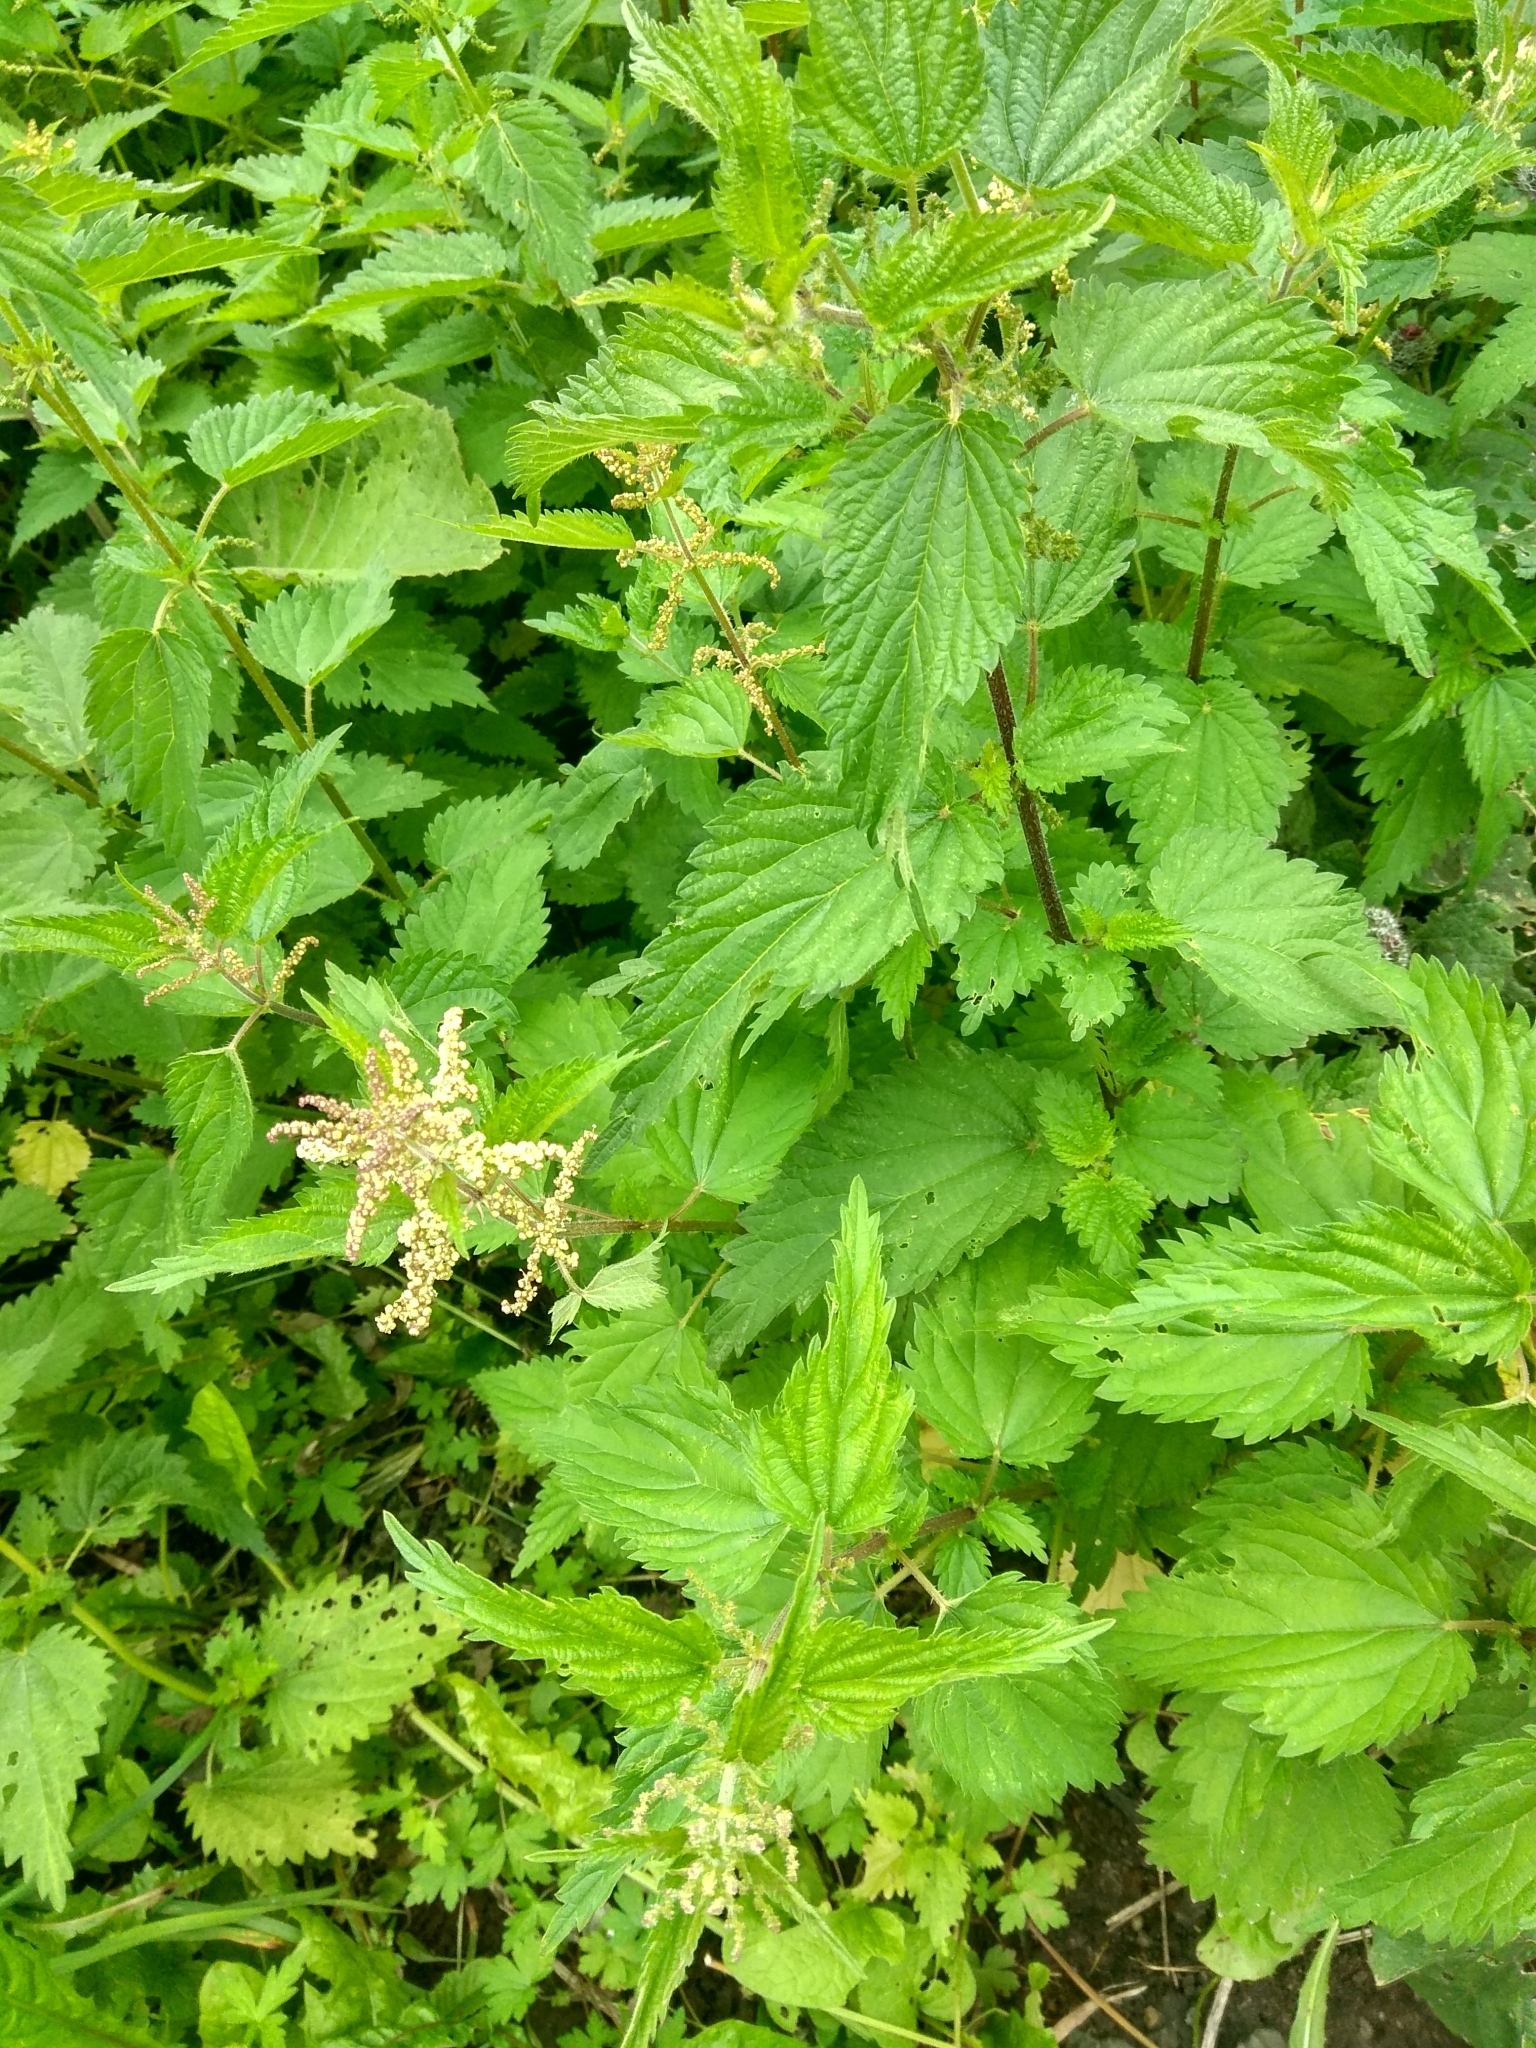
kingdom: Plantae
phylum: Tracheophyta
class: Magnoliopsida
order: Rosales
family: Urticaceae
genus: Urtica
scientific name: Urtica dioica
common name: Common nettle
